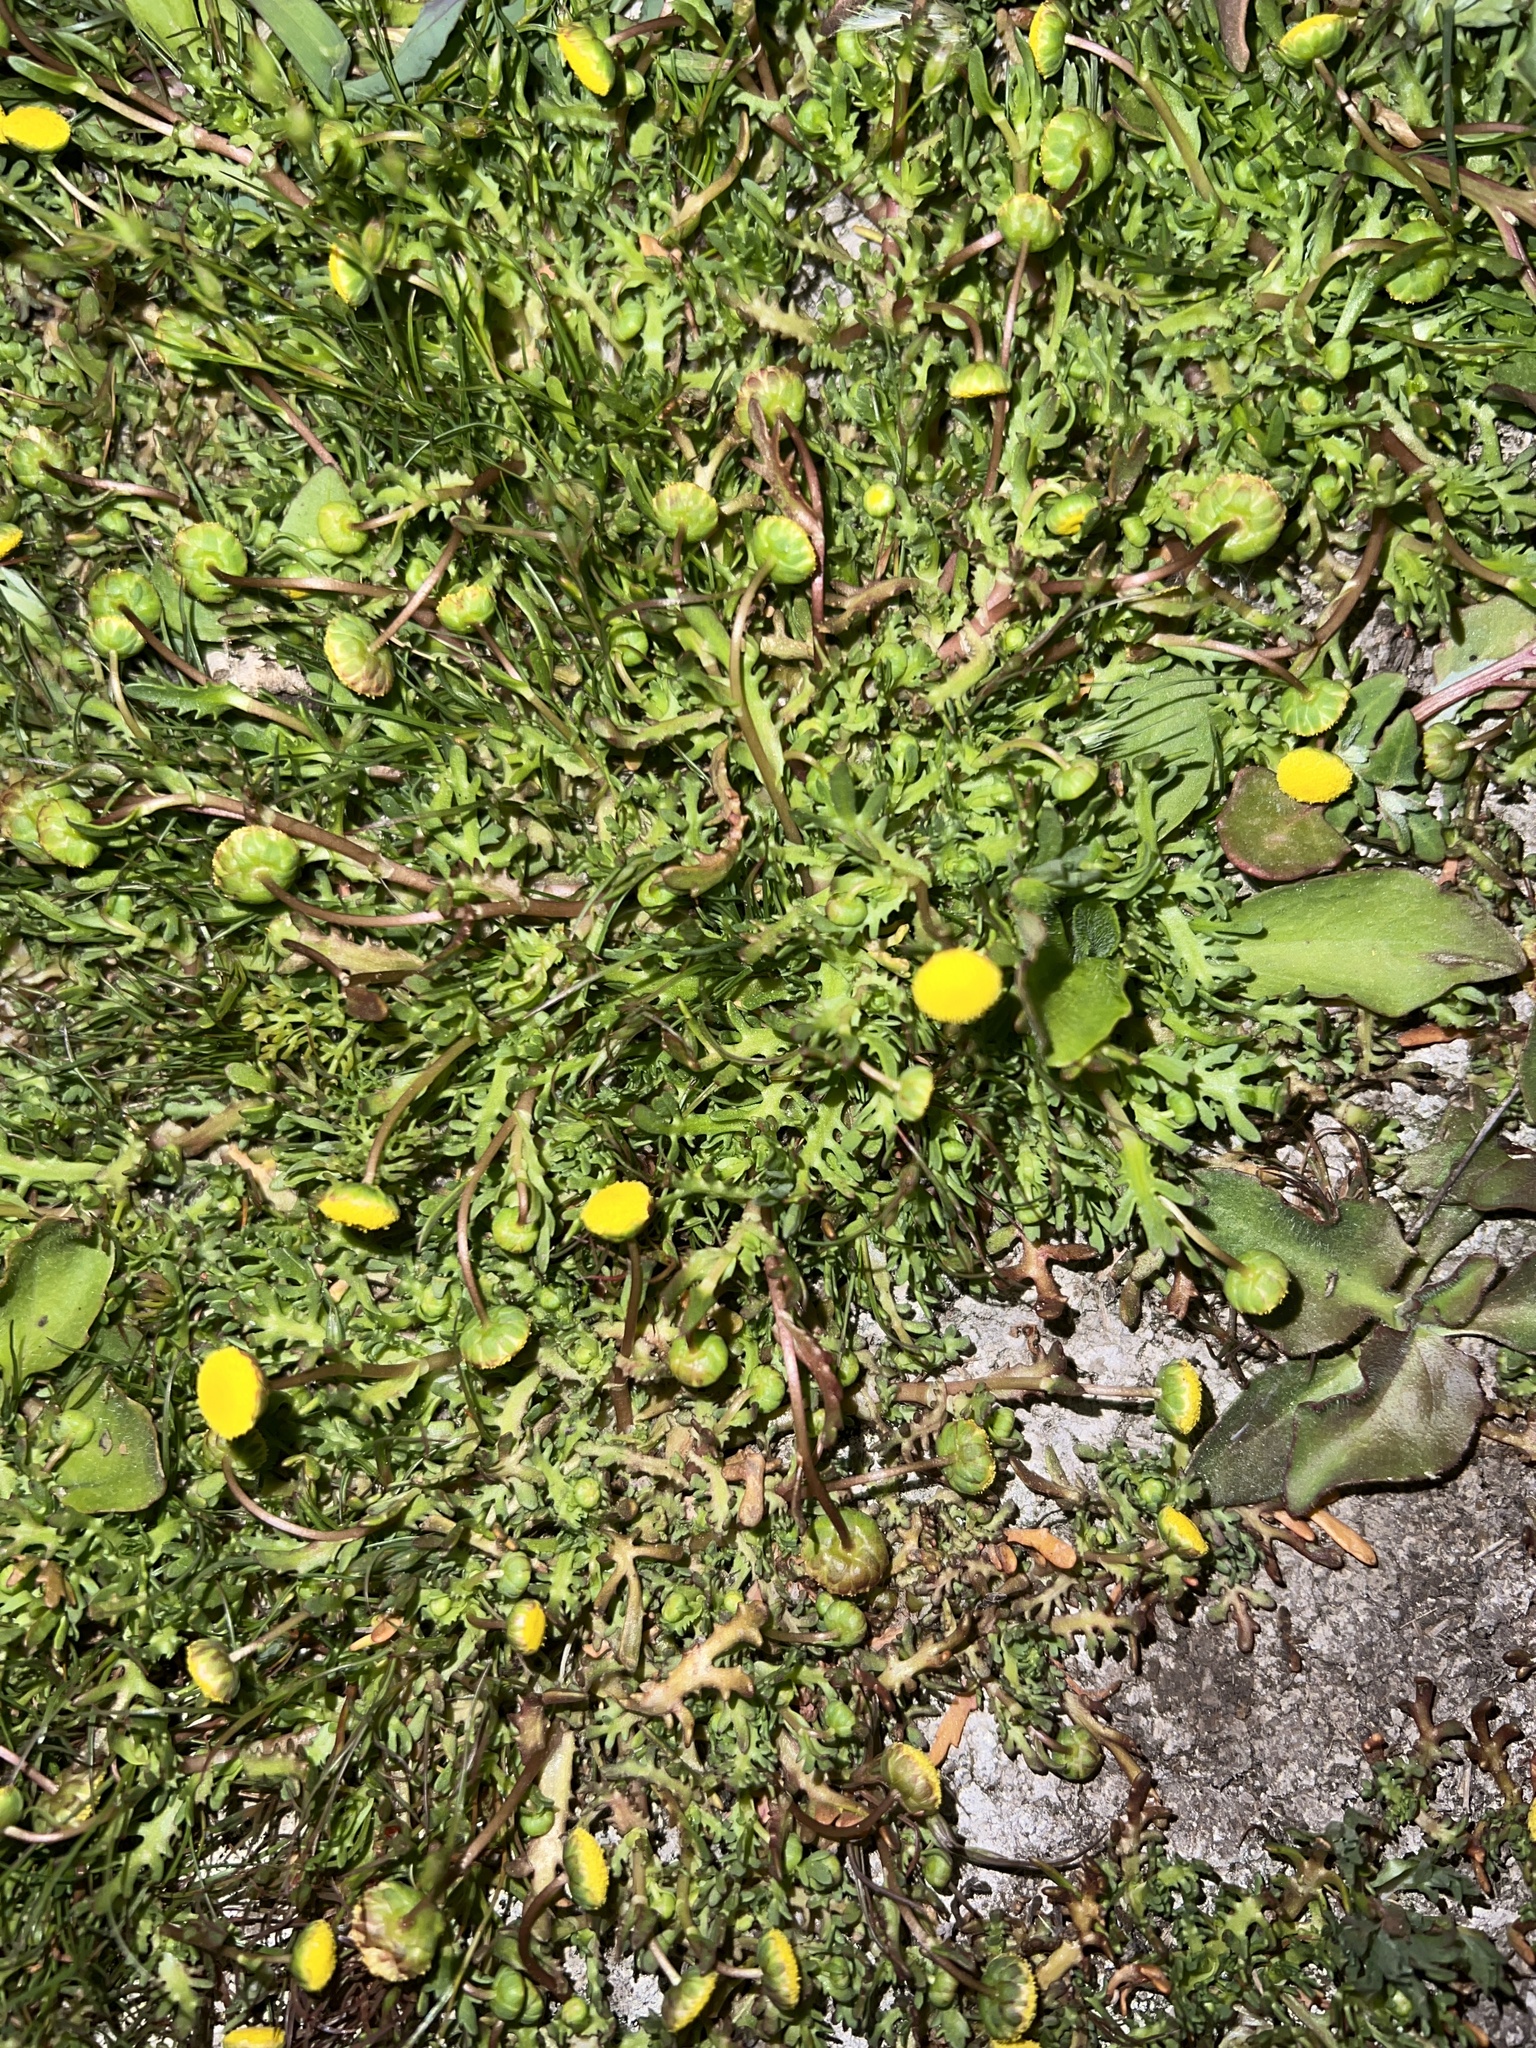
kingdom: Plantae
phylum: Tracheophyta
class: Magnoliopsida
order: Asterales
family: Asteraceae
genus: Cotula
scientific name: Cotula coronopifolia
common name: Buttonweed
